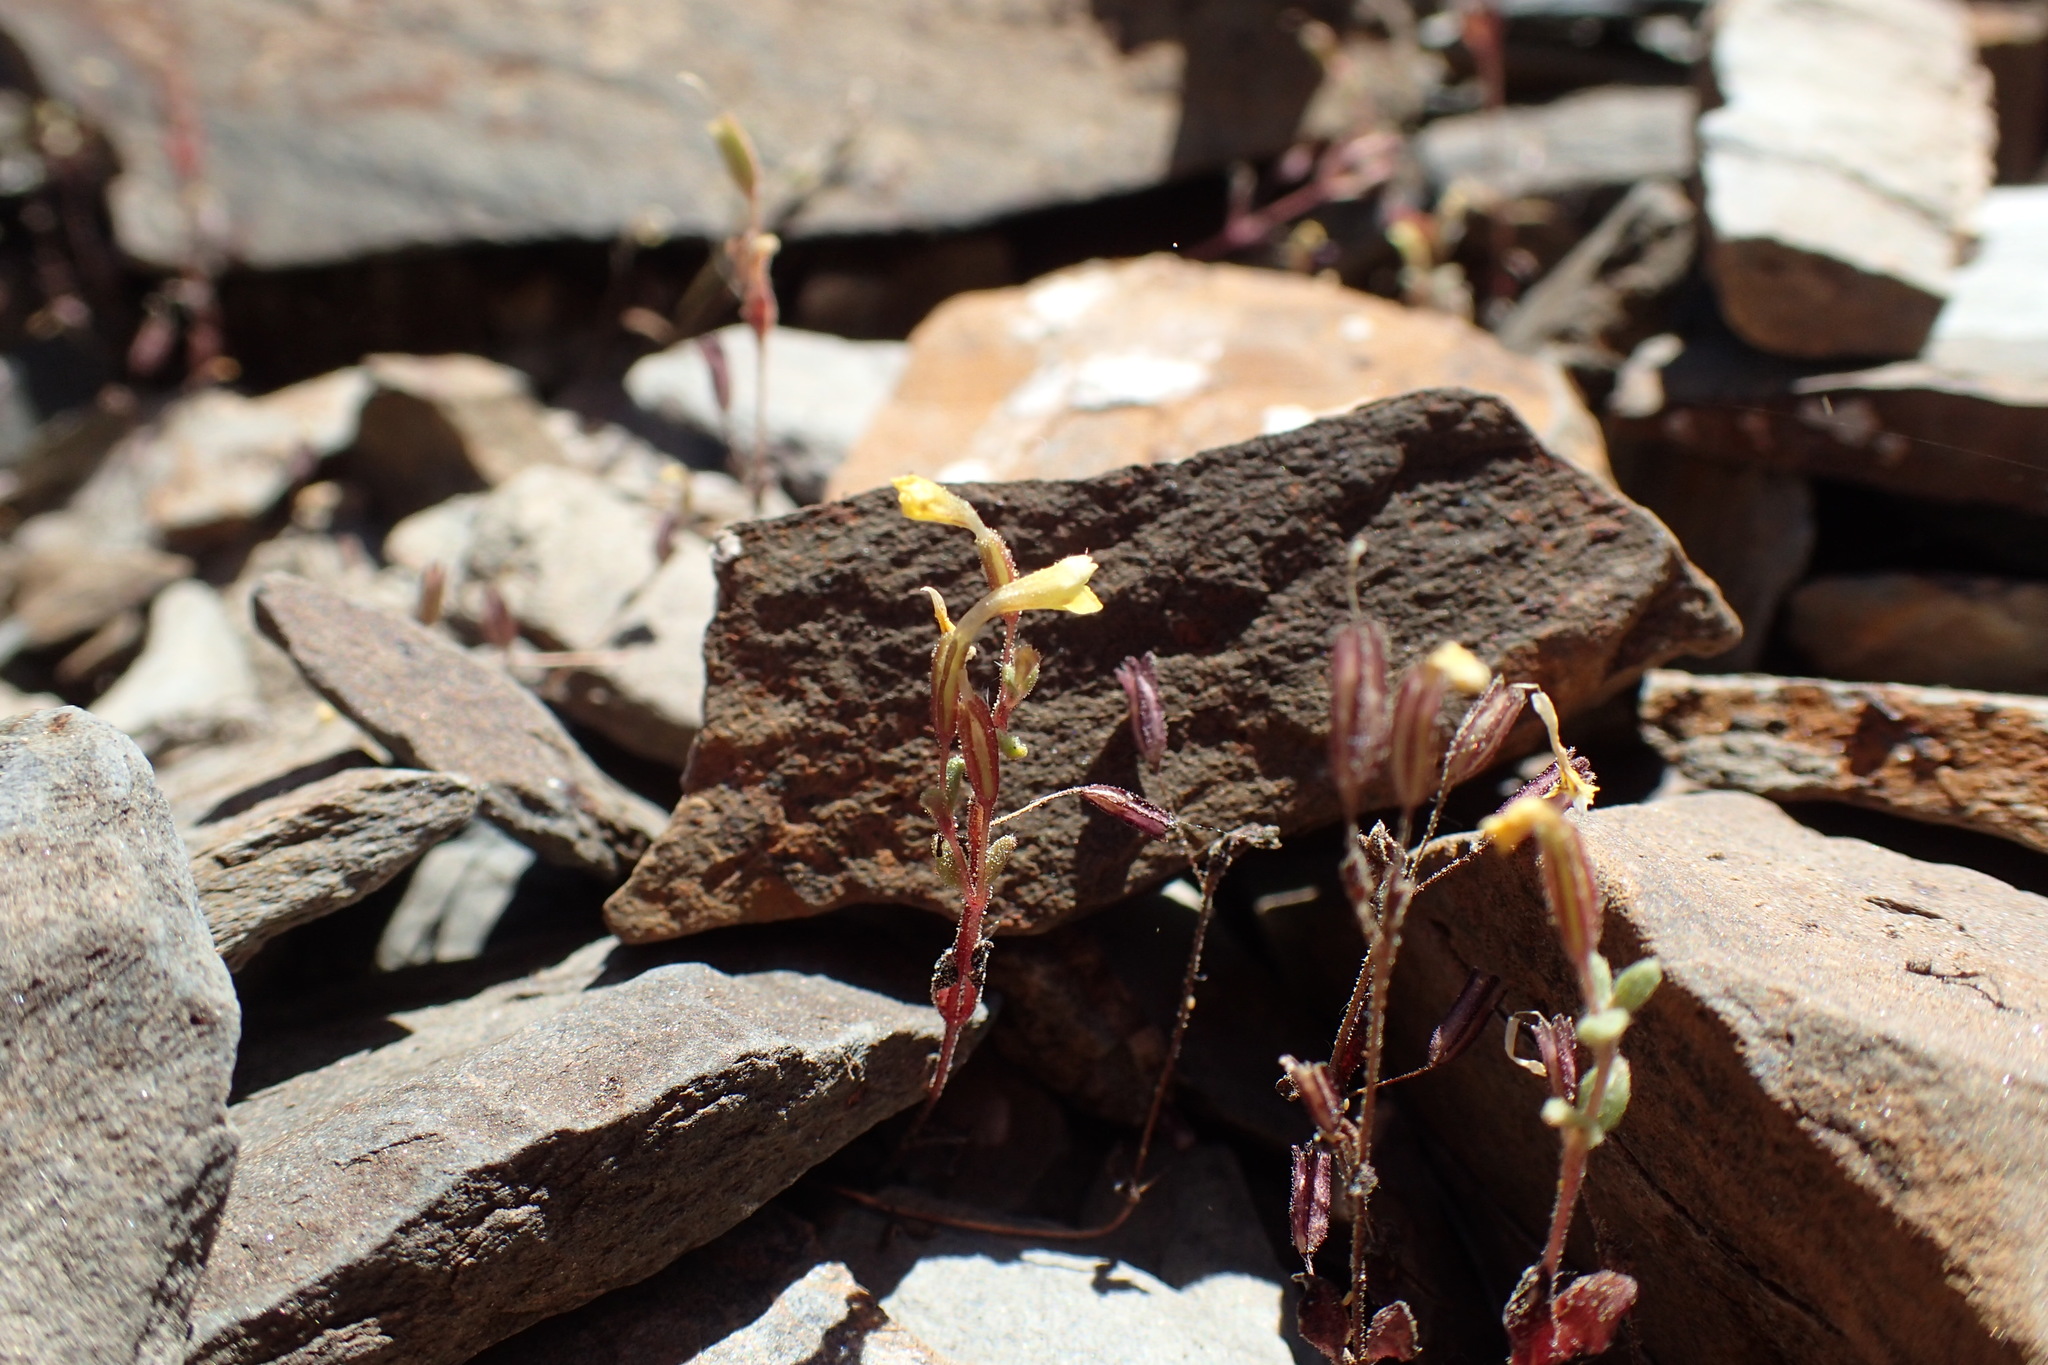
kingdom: Plantae
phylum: Tracheophyta
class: Magnoliopsida
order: Lamiales
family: Phrymaceae
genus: Erythranthe
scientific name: Erythranthe rubella
